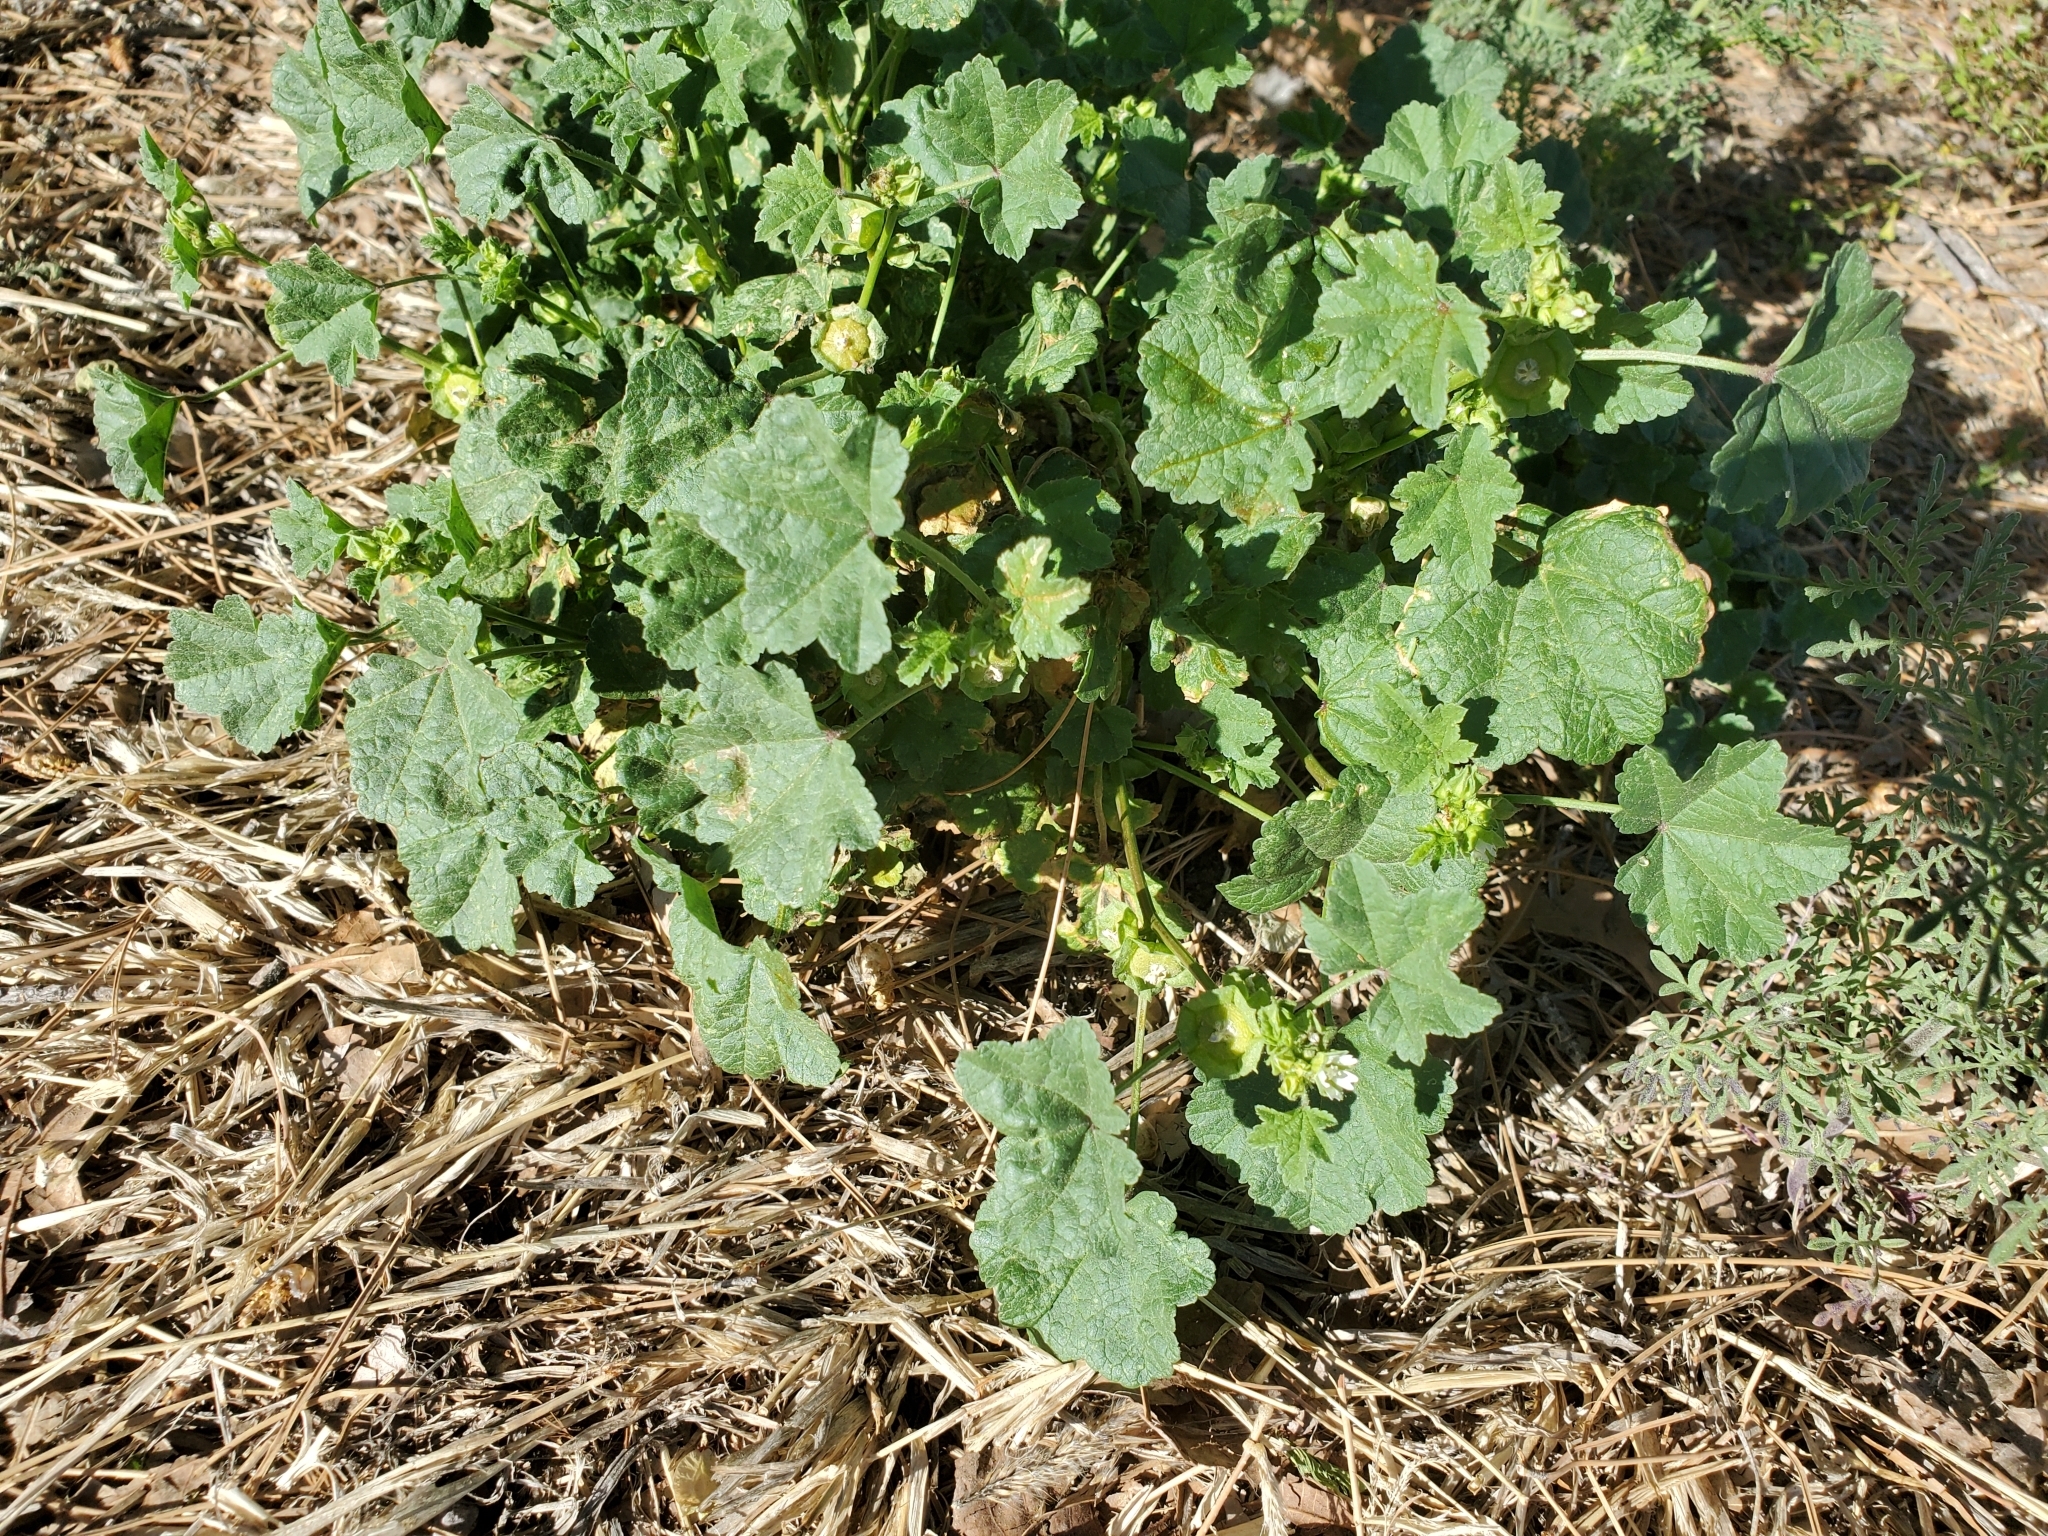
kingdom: Plantae
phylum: Tracheophyta
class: Magnoliopsida
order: Malvales
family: Malvaceae
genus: Malva
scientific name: Malva parviflora
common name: Least mallow
